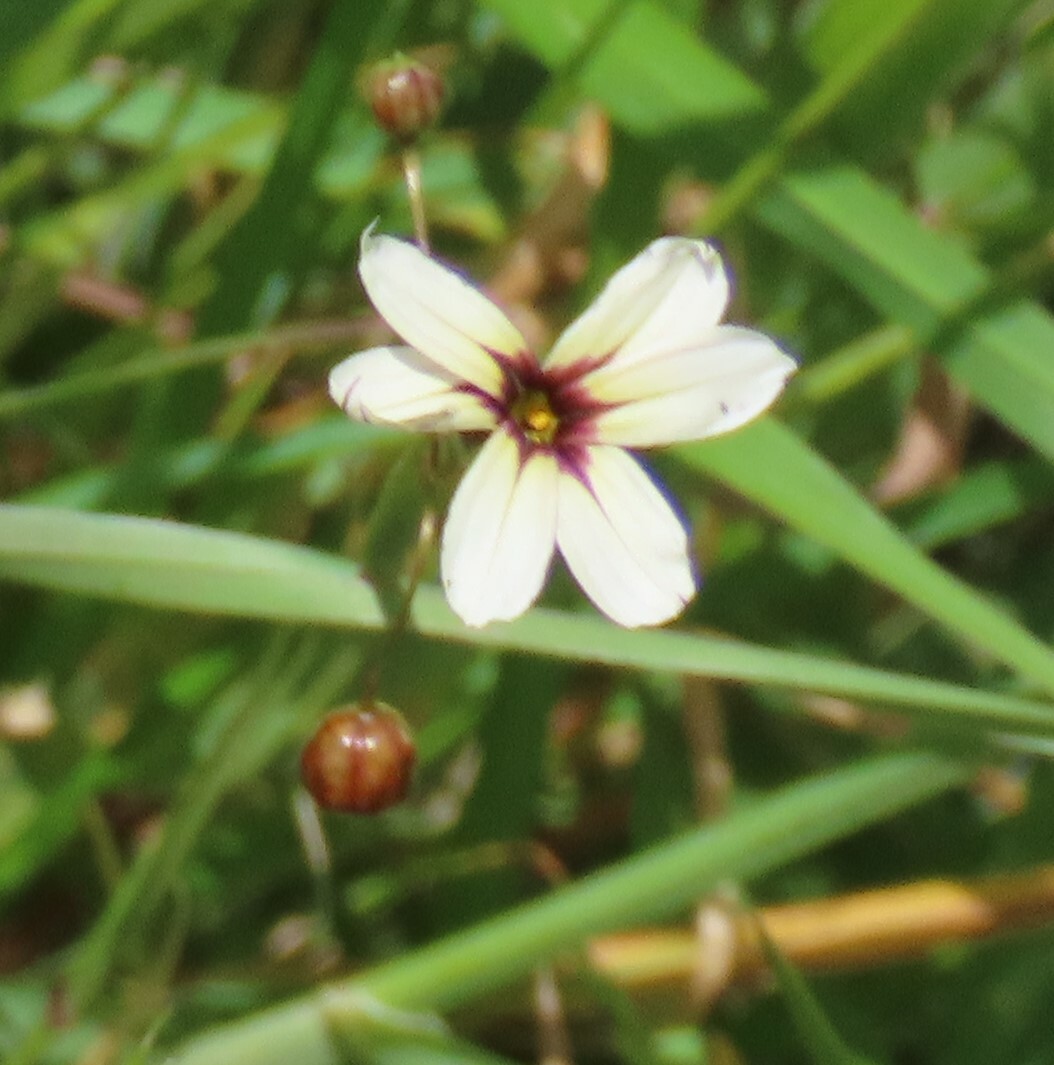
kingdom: Plantae
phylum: Tracheophyta
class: Liliopsida
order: Asparagales
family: Iridaceae
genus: Sisyrinchium
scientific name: Sisyrinchium micranthum
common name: Bermuda pigroot
